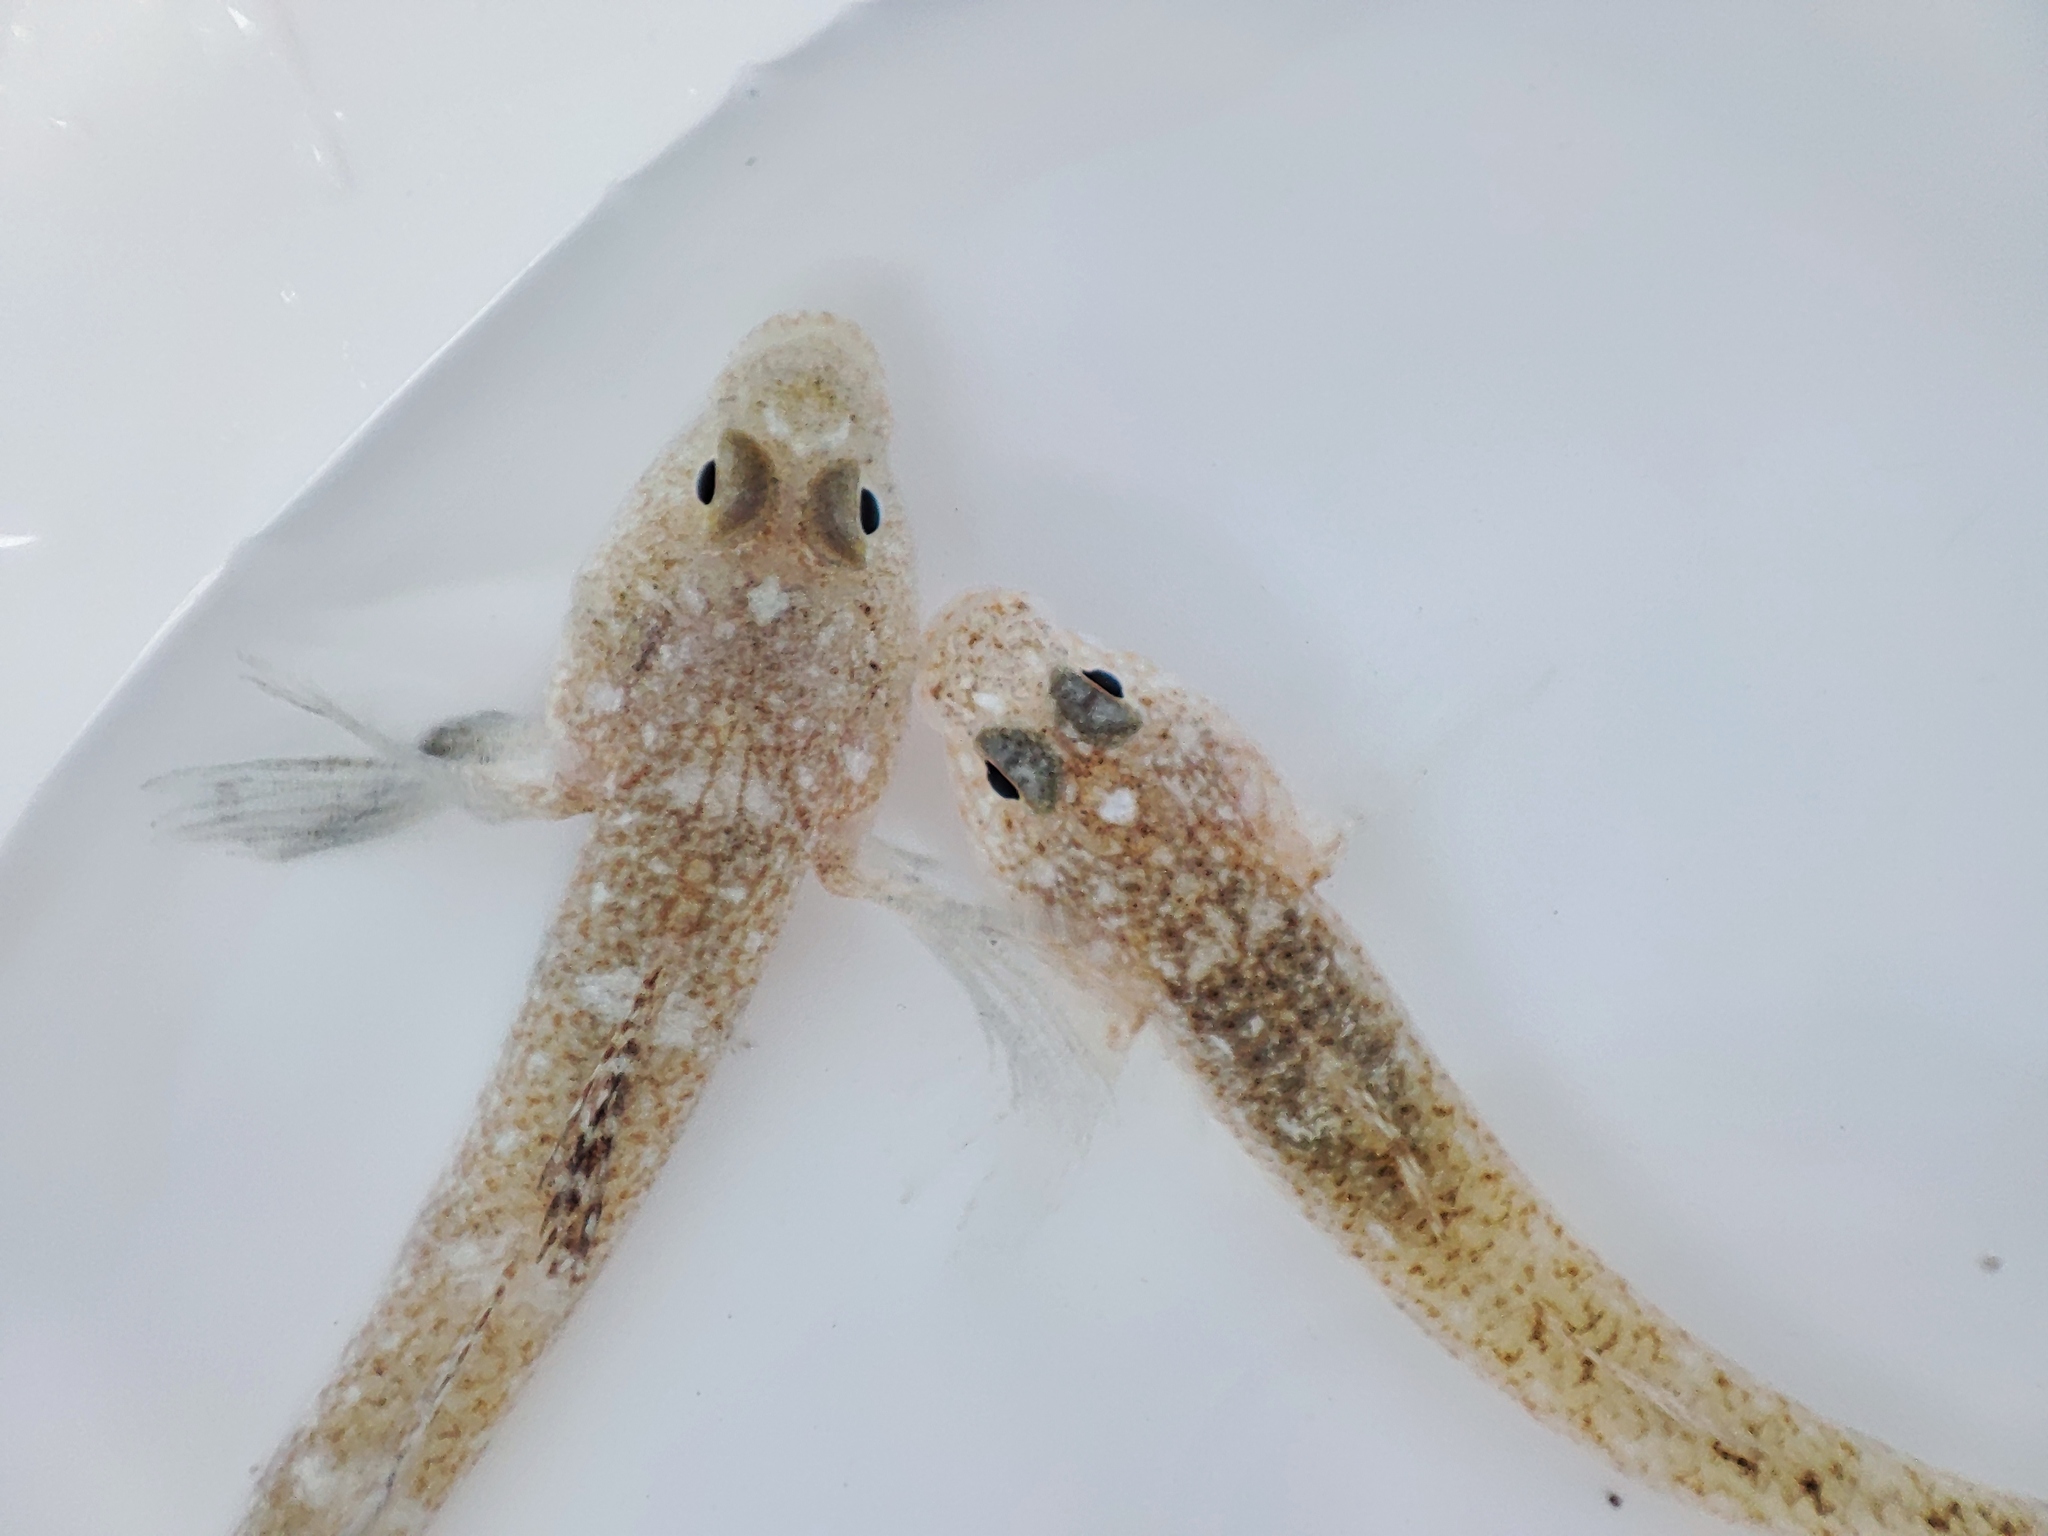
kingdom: Animalia
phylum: Chordata
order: Perciformes
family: Gobiidae
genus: Pomatoschistus
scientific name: Pomatoschistus marmoratus
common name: Marbled goby
